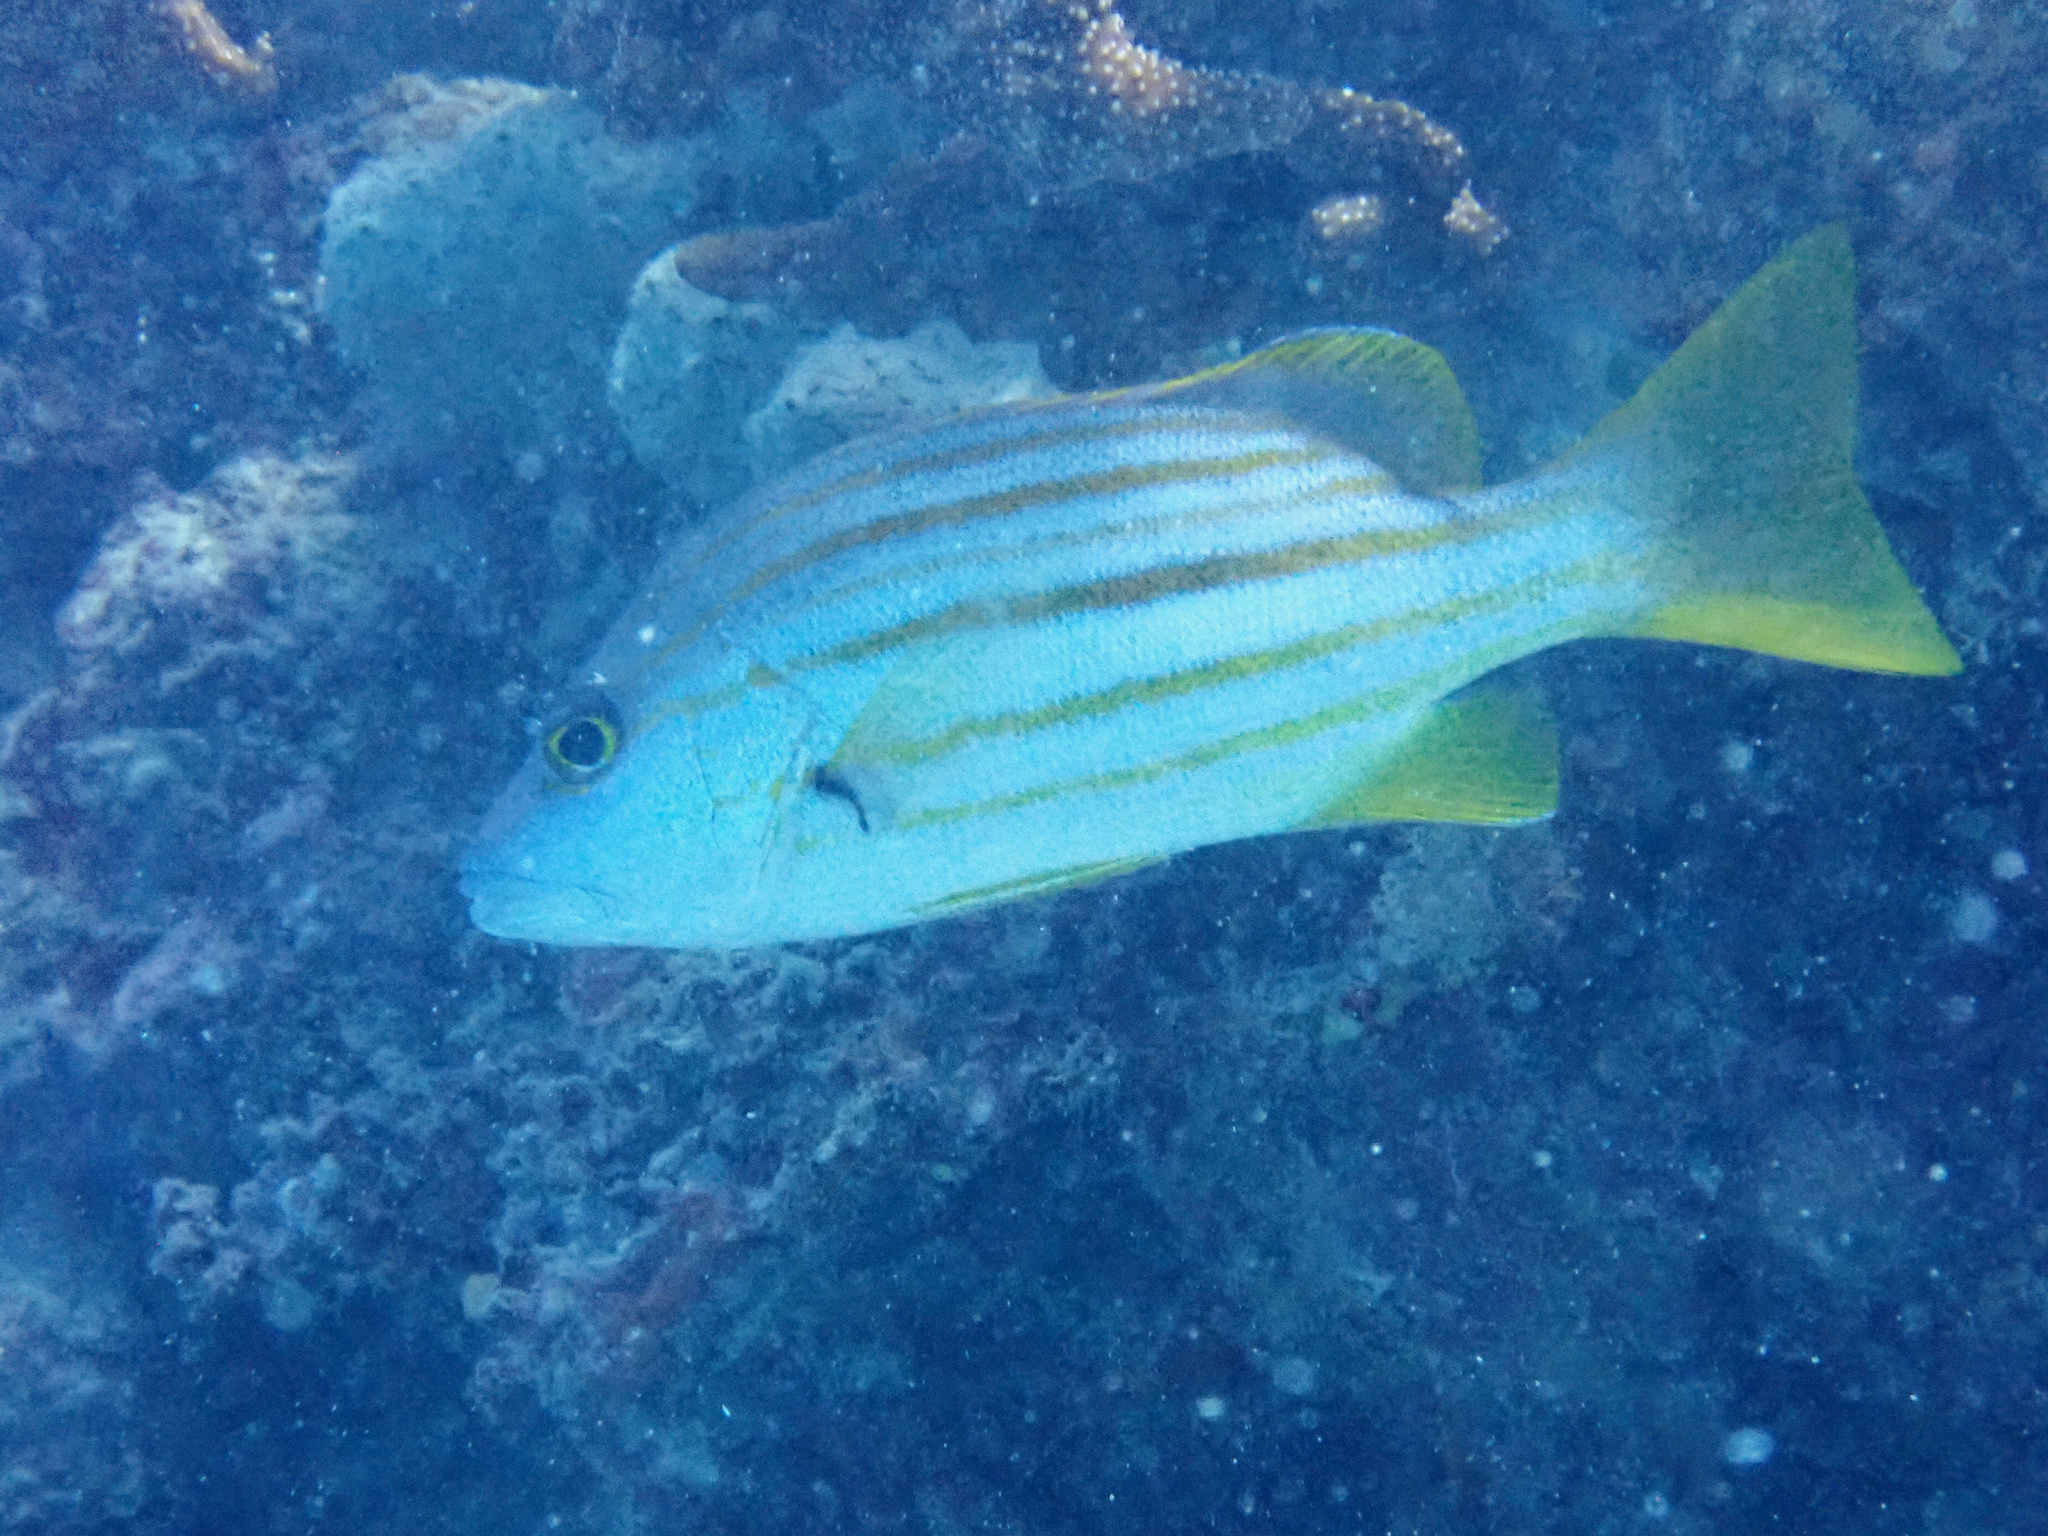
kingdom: Animalia
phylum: Chordata
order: Perciformes
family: Lutjanidae
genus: Lutjanus
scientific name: Lutjanus carponotatus
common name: Spanish flag
